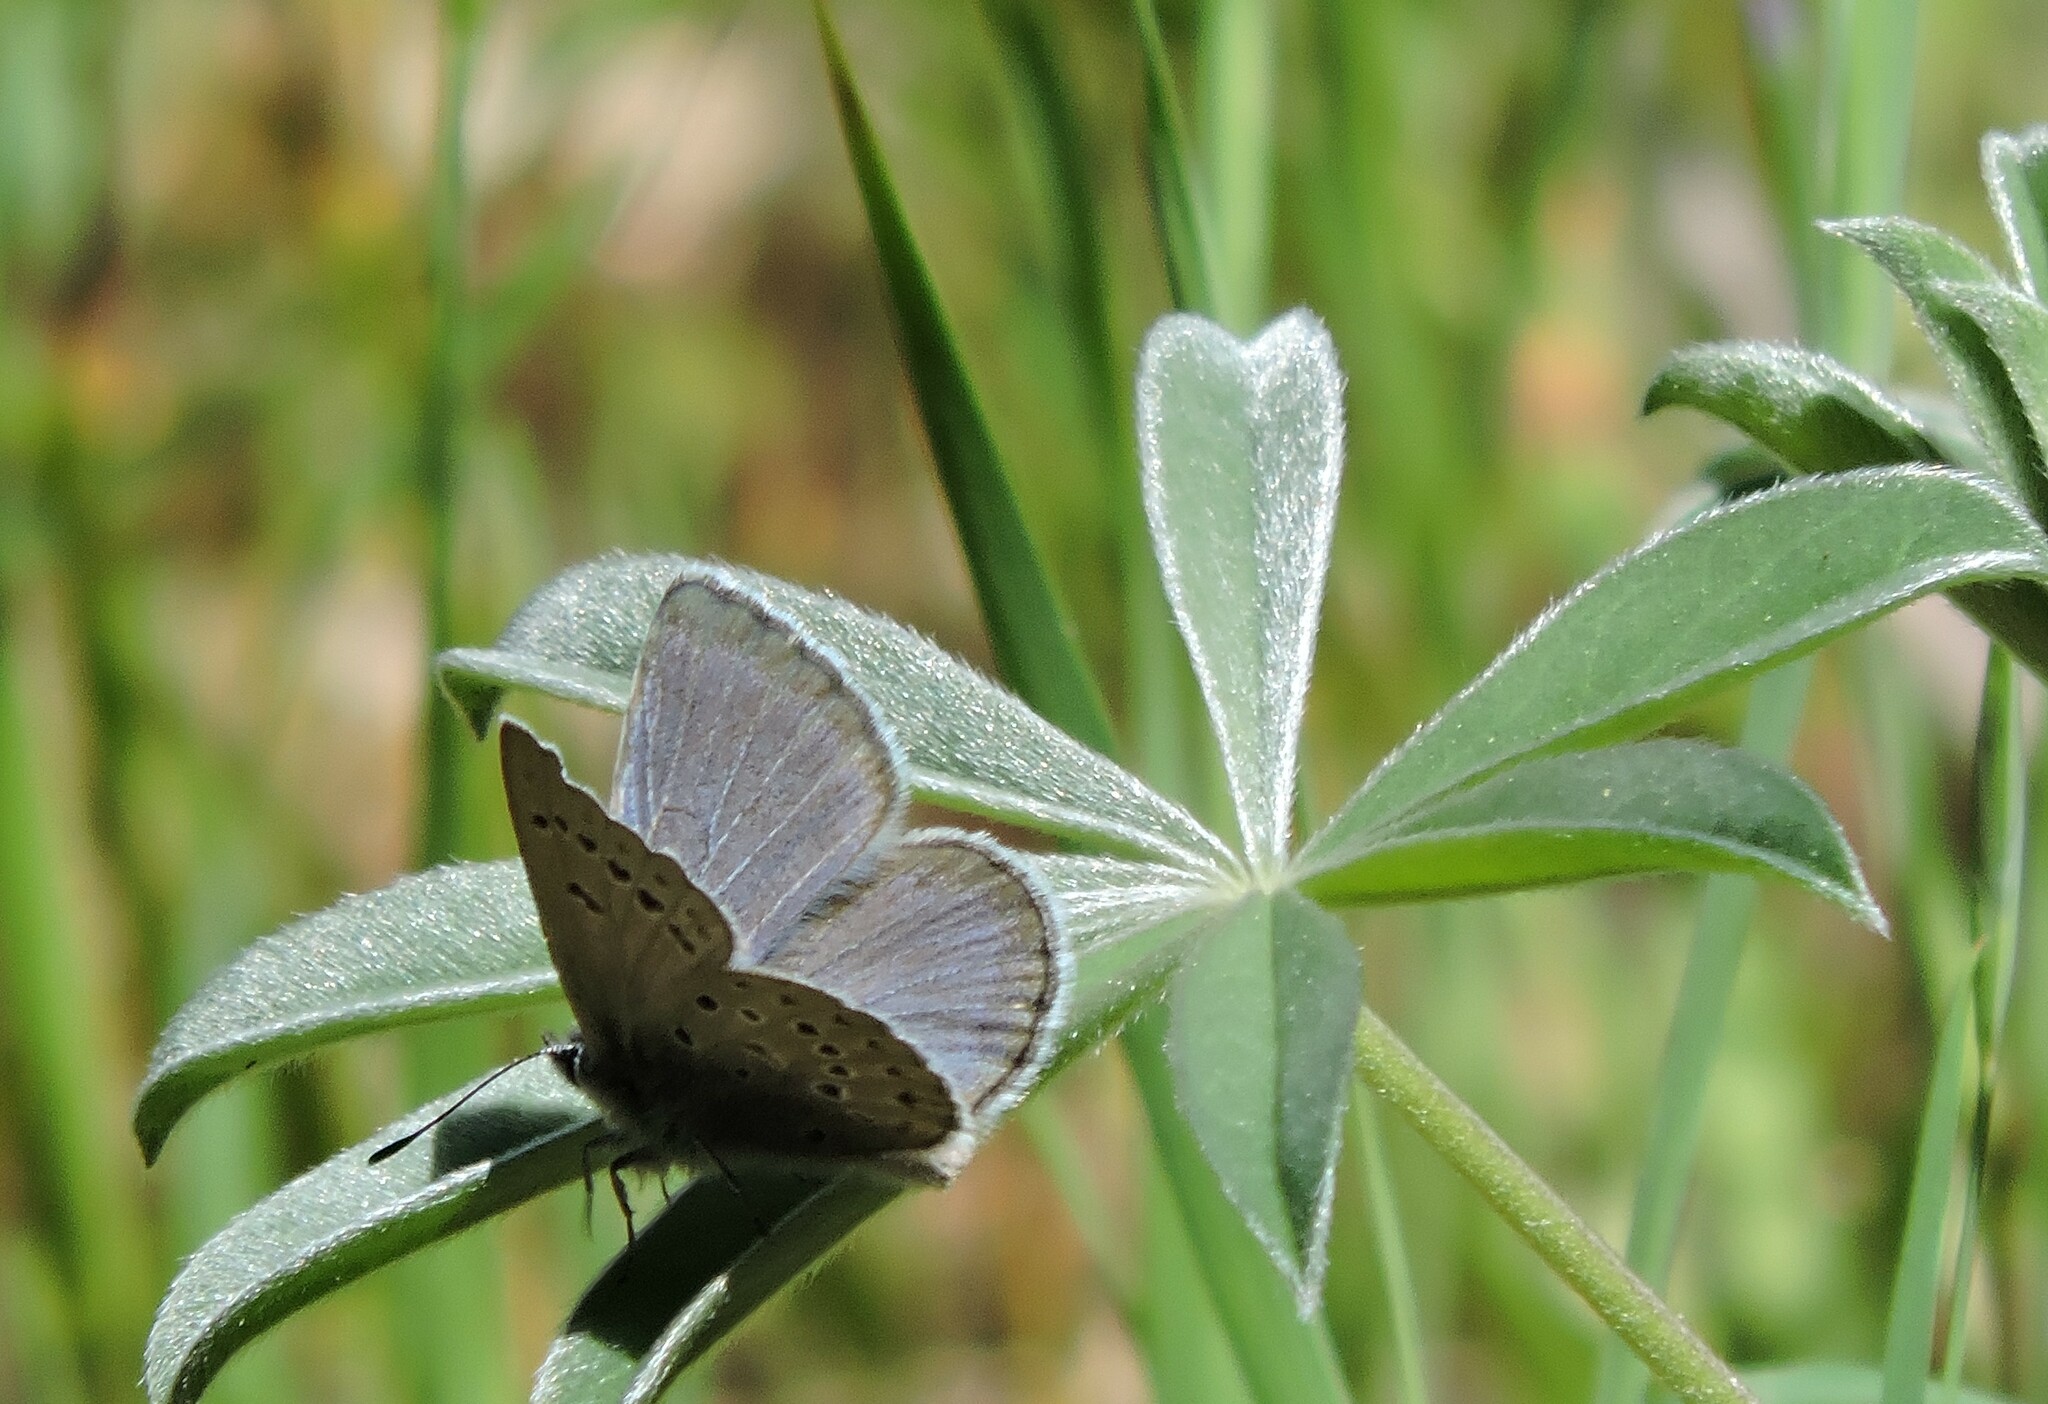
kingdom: Animalia
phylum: Arthropoda
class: Insecta
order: Lepidoptera
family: Lycaenidae
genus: Icaricia
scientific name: Icaricia icarioides
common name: Boisduval's blue
